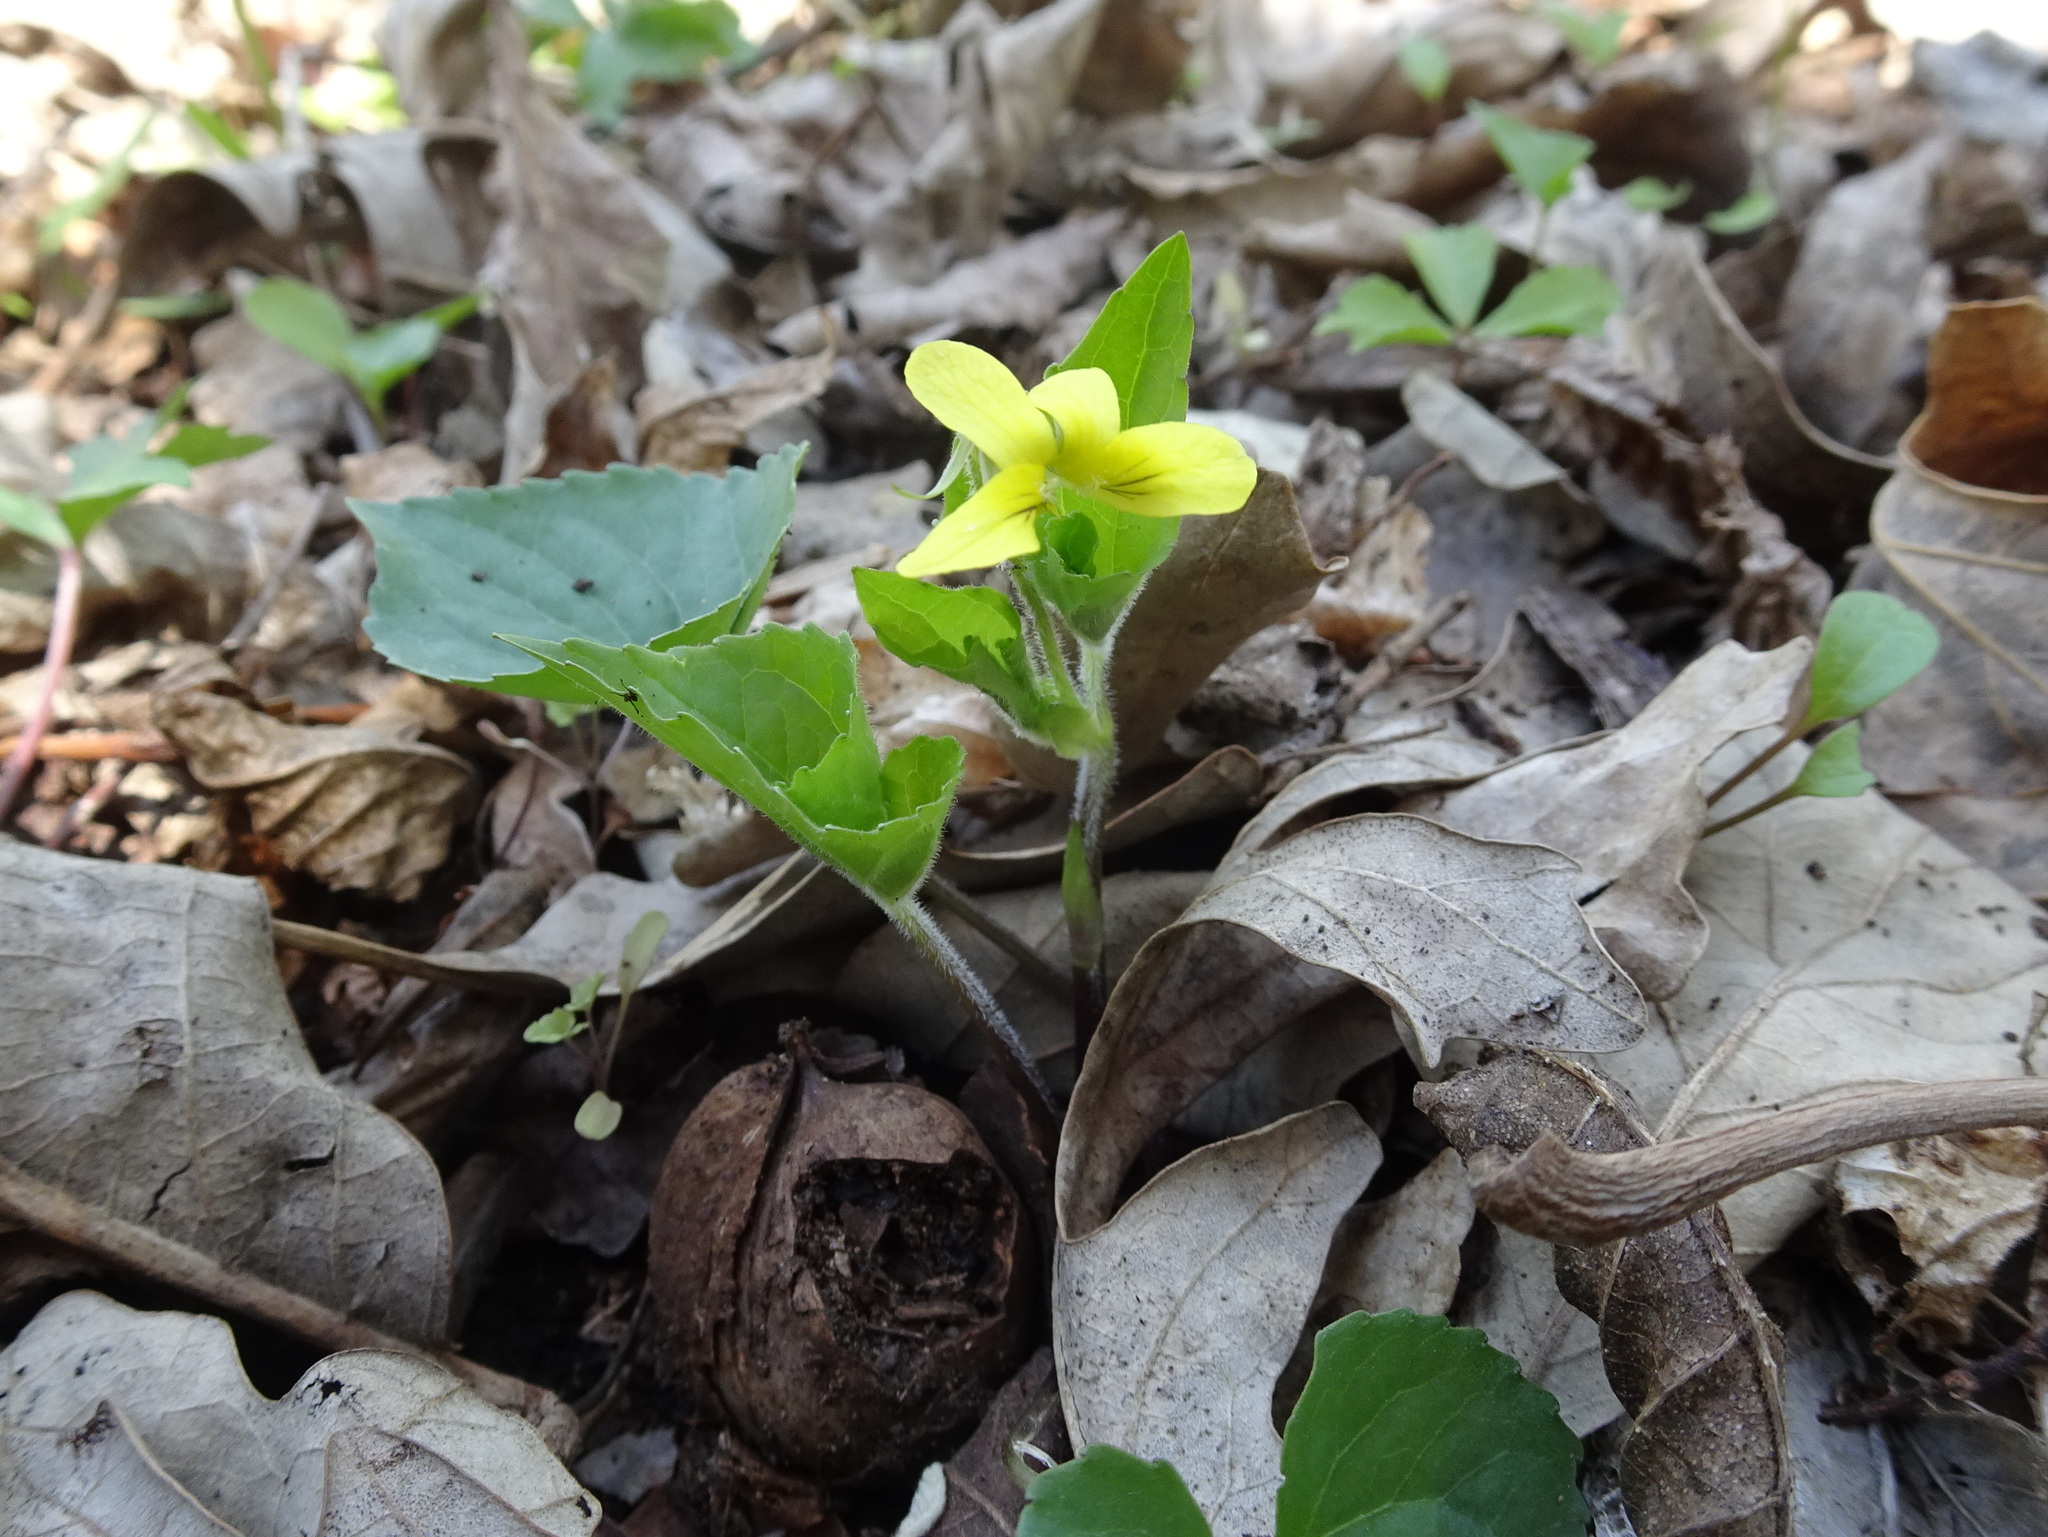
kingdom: Plantae
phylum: Tracheophyta
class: Magnoliopsida
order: Malpighiales
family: Violaceae
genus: Viola
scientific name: Viola eriocarpa
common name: Smooth yellow violet
